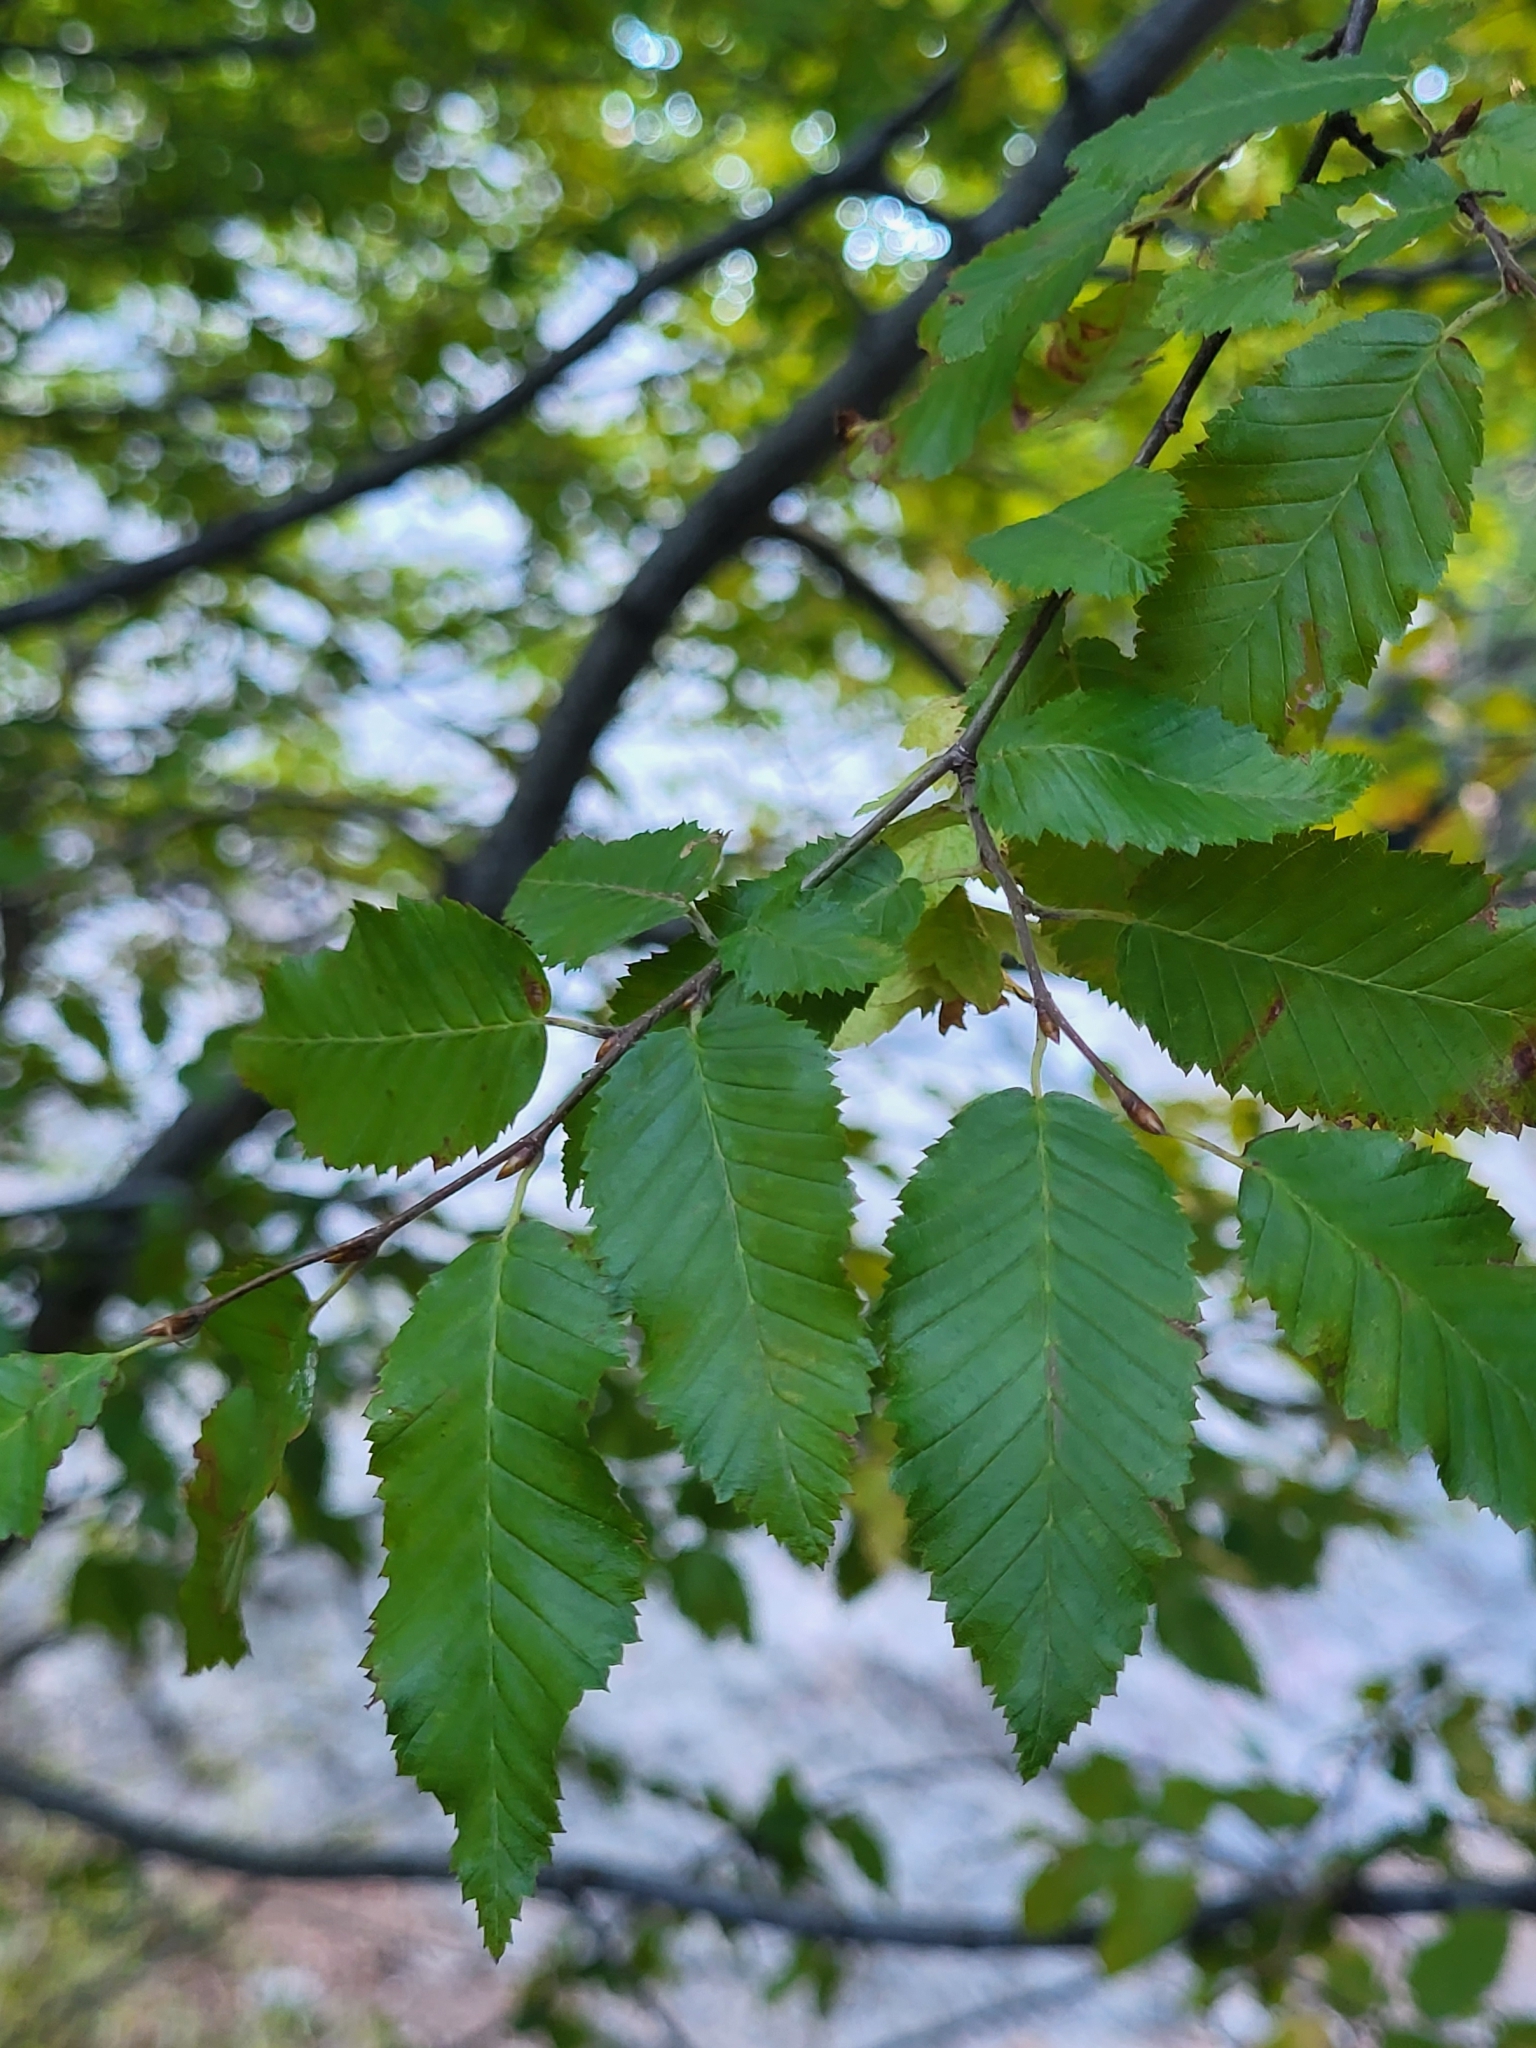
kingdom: Plantae
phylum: Tracheophyta
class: Magnoliopsida
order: Fagales
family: Betulaceae
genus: Carpinus
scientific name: Carpinus orientalis
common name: Eastern hornbeam
